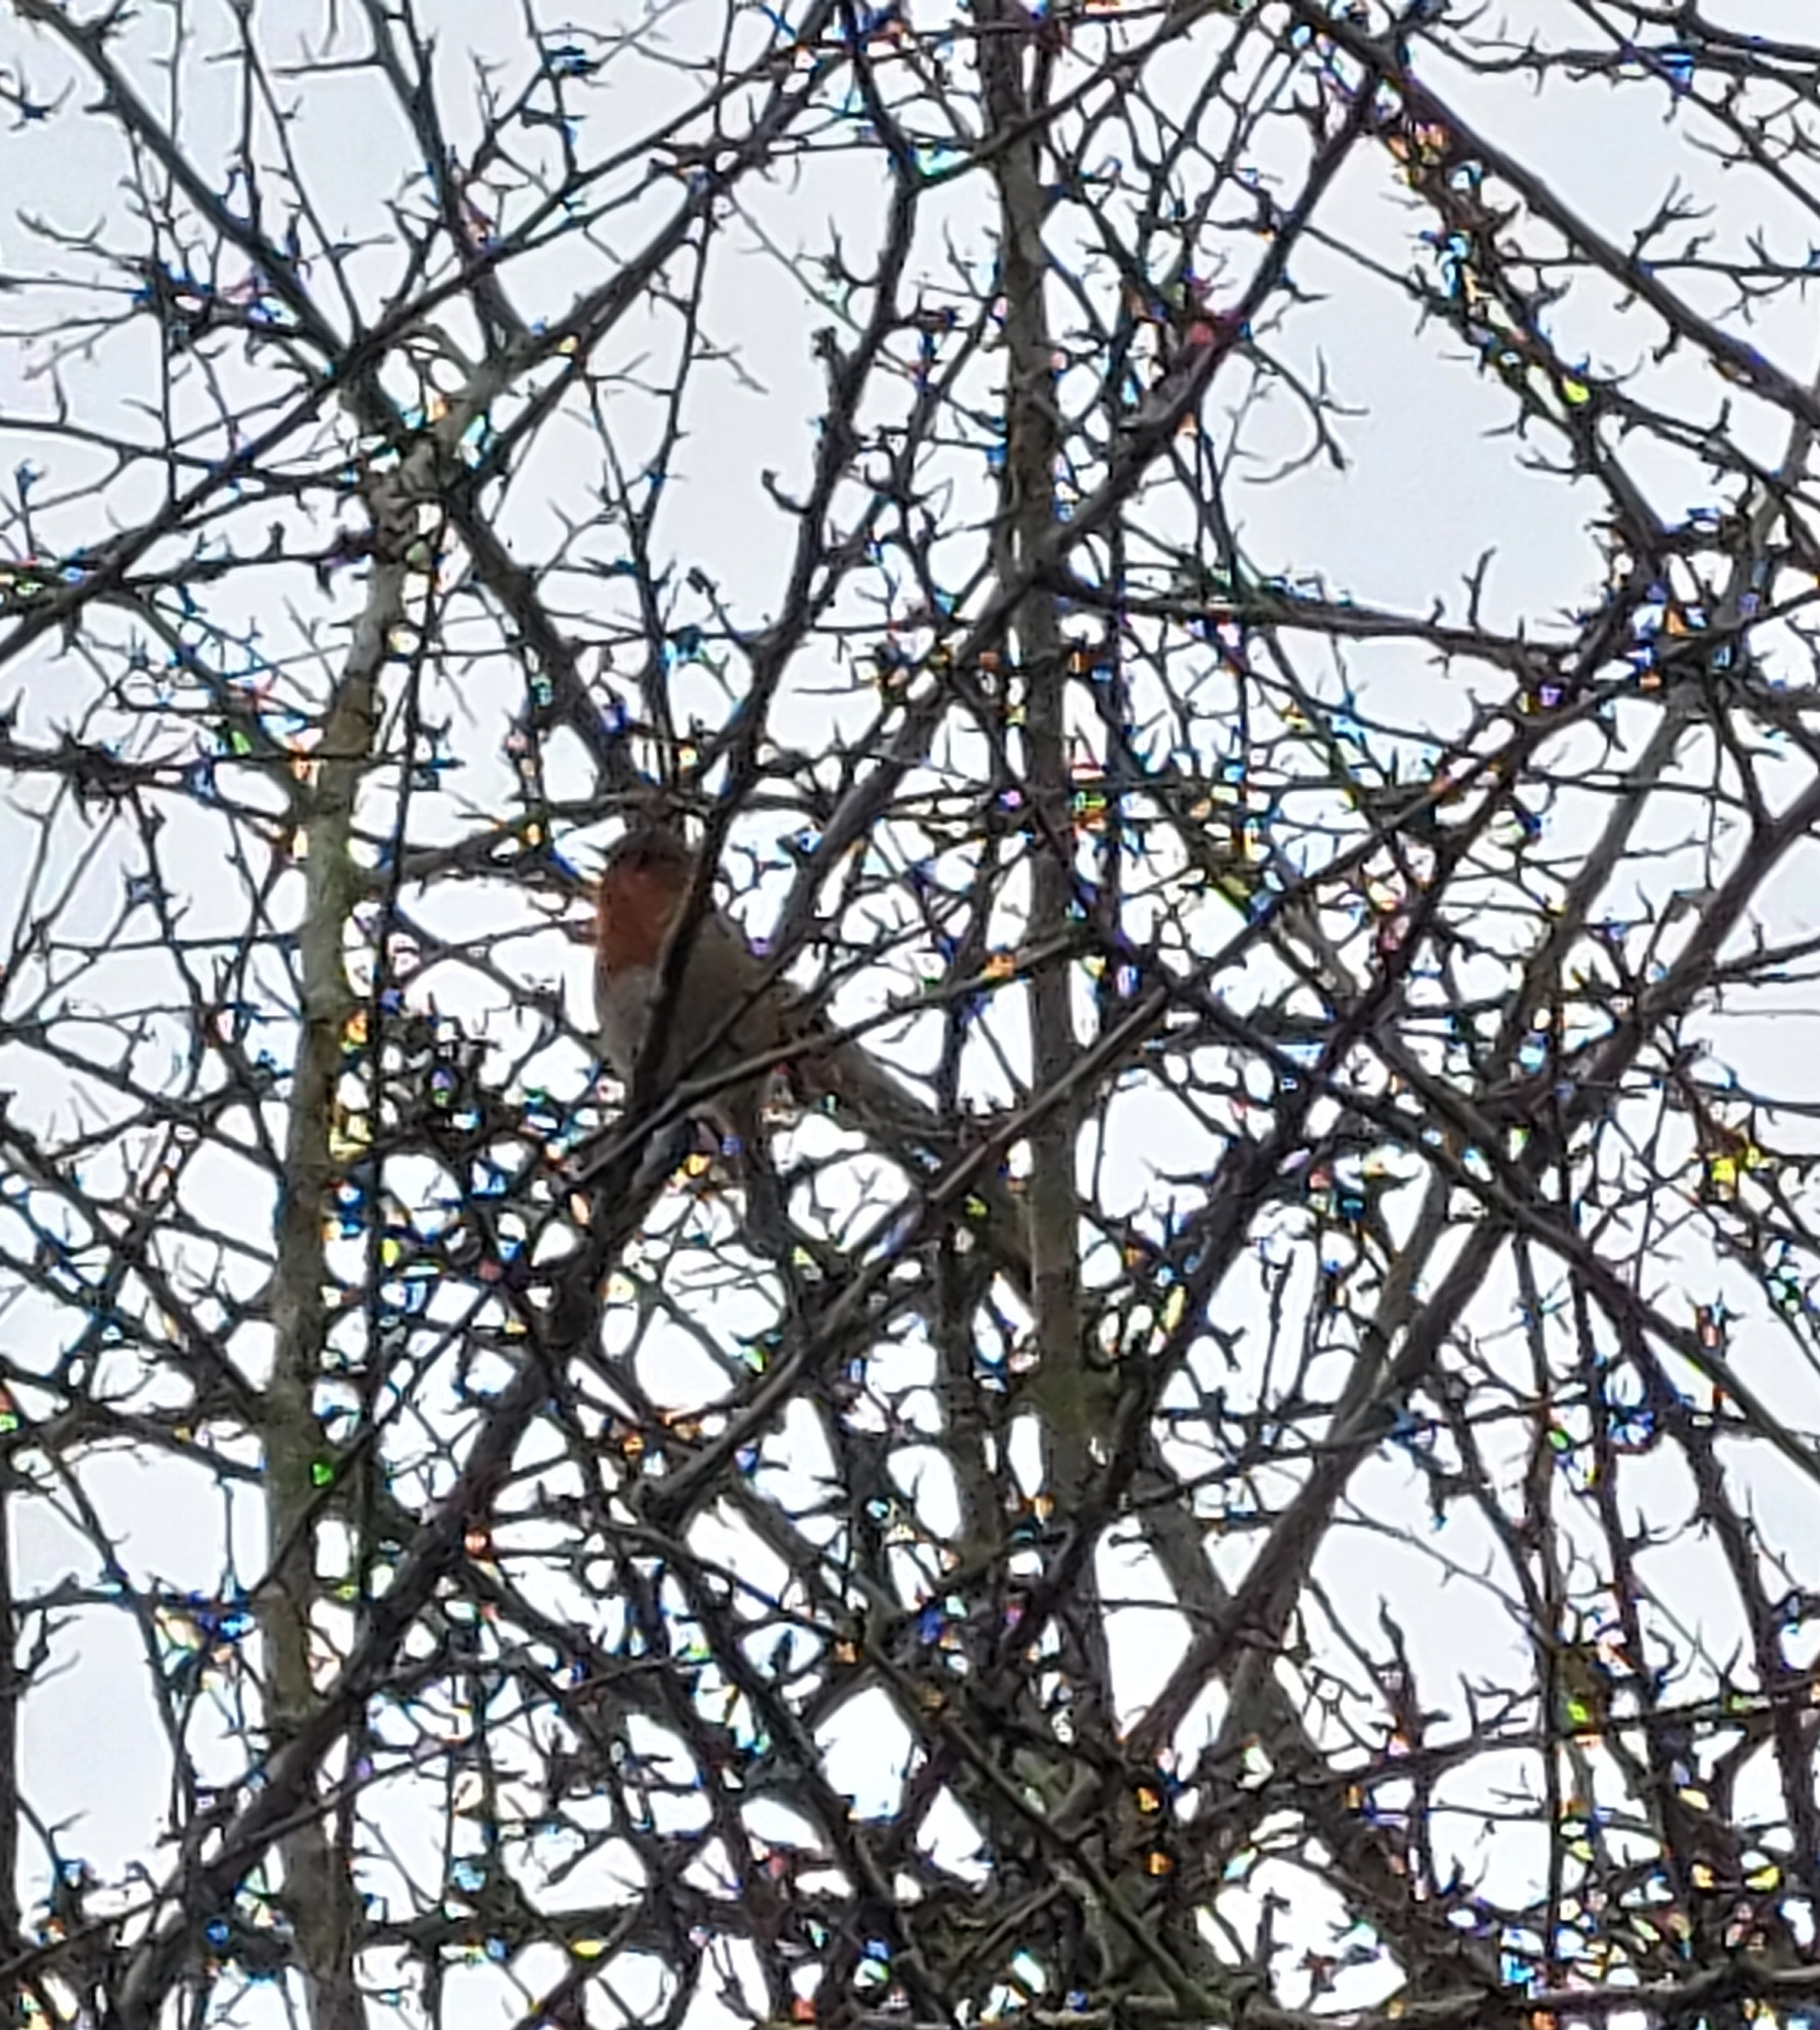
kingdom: Animalia
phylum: Chordata
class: Aves
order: Passeriformes
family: Muscicapidae
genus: Erithacus
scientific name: Erithacus rubecula
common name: European robin
